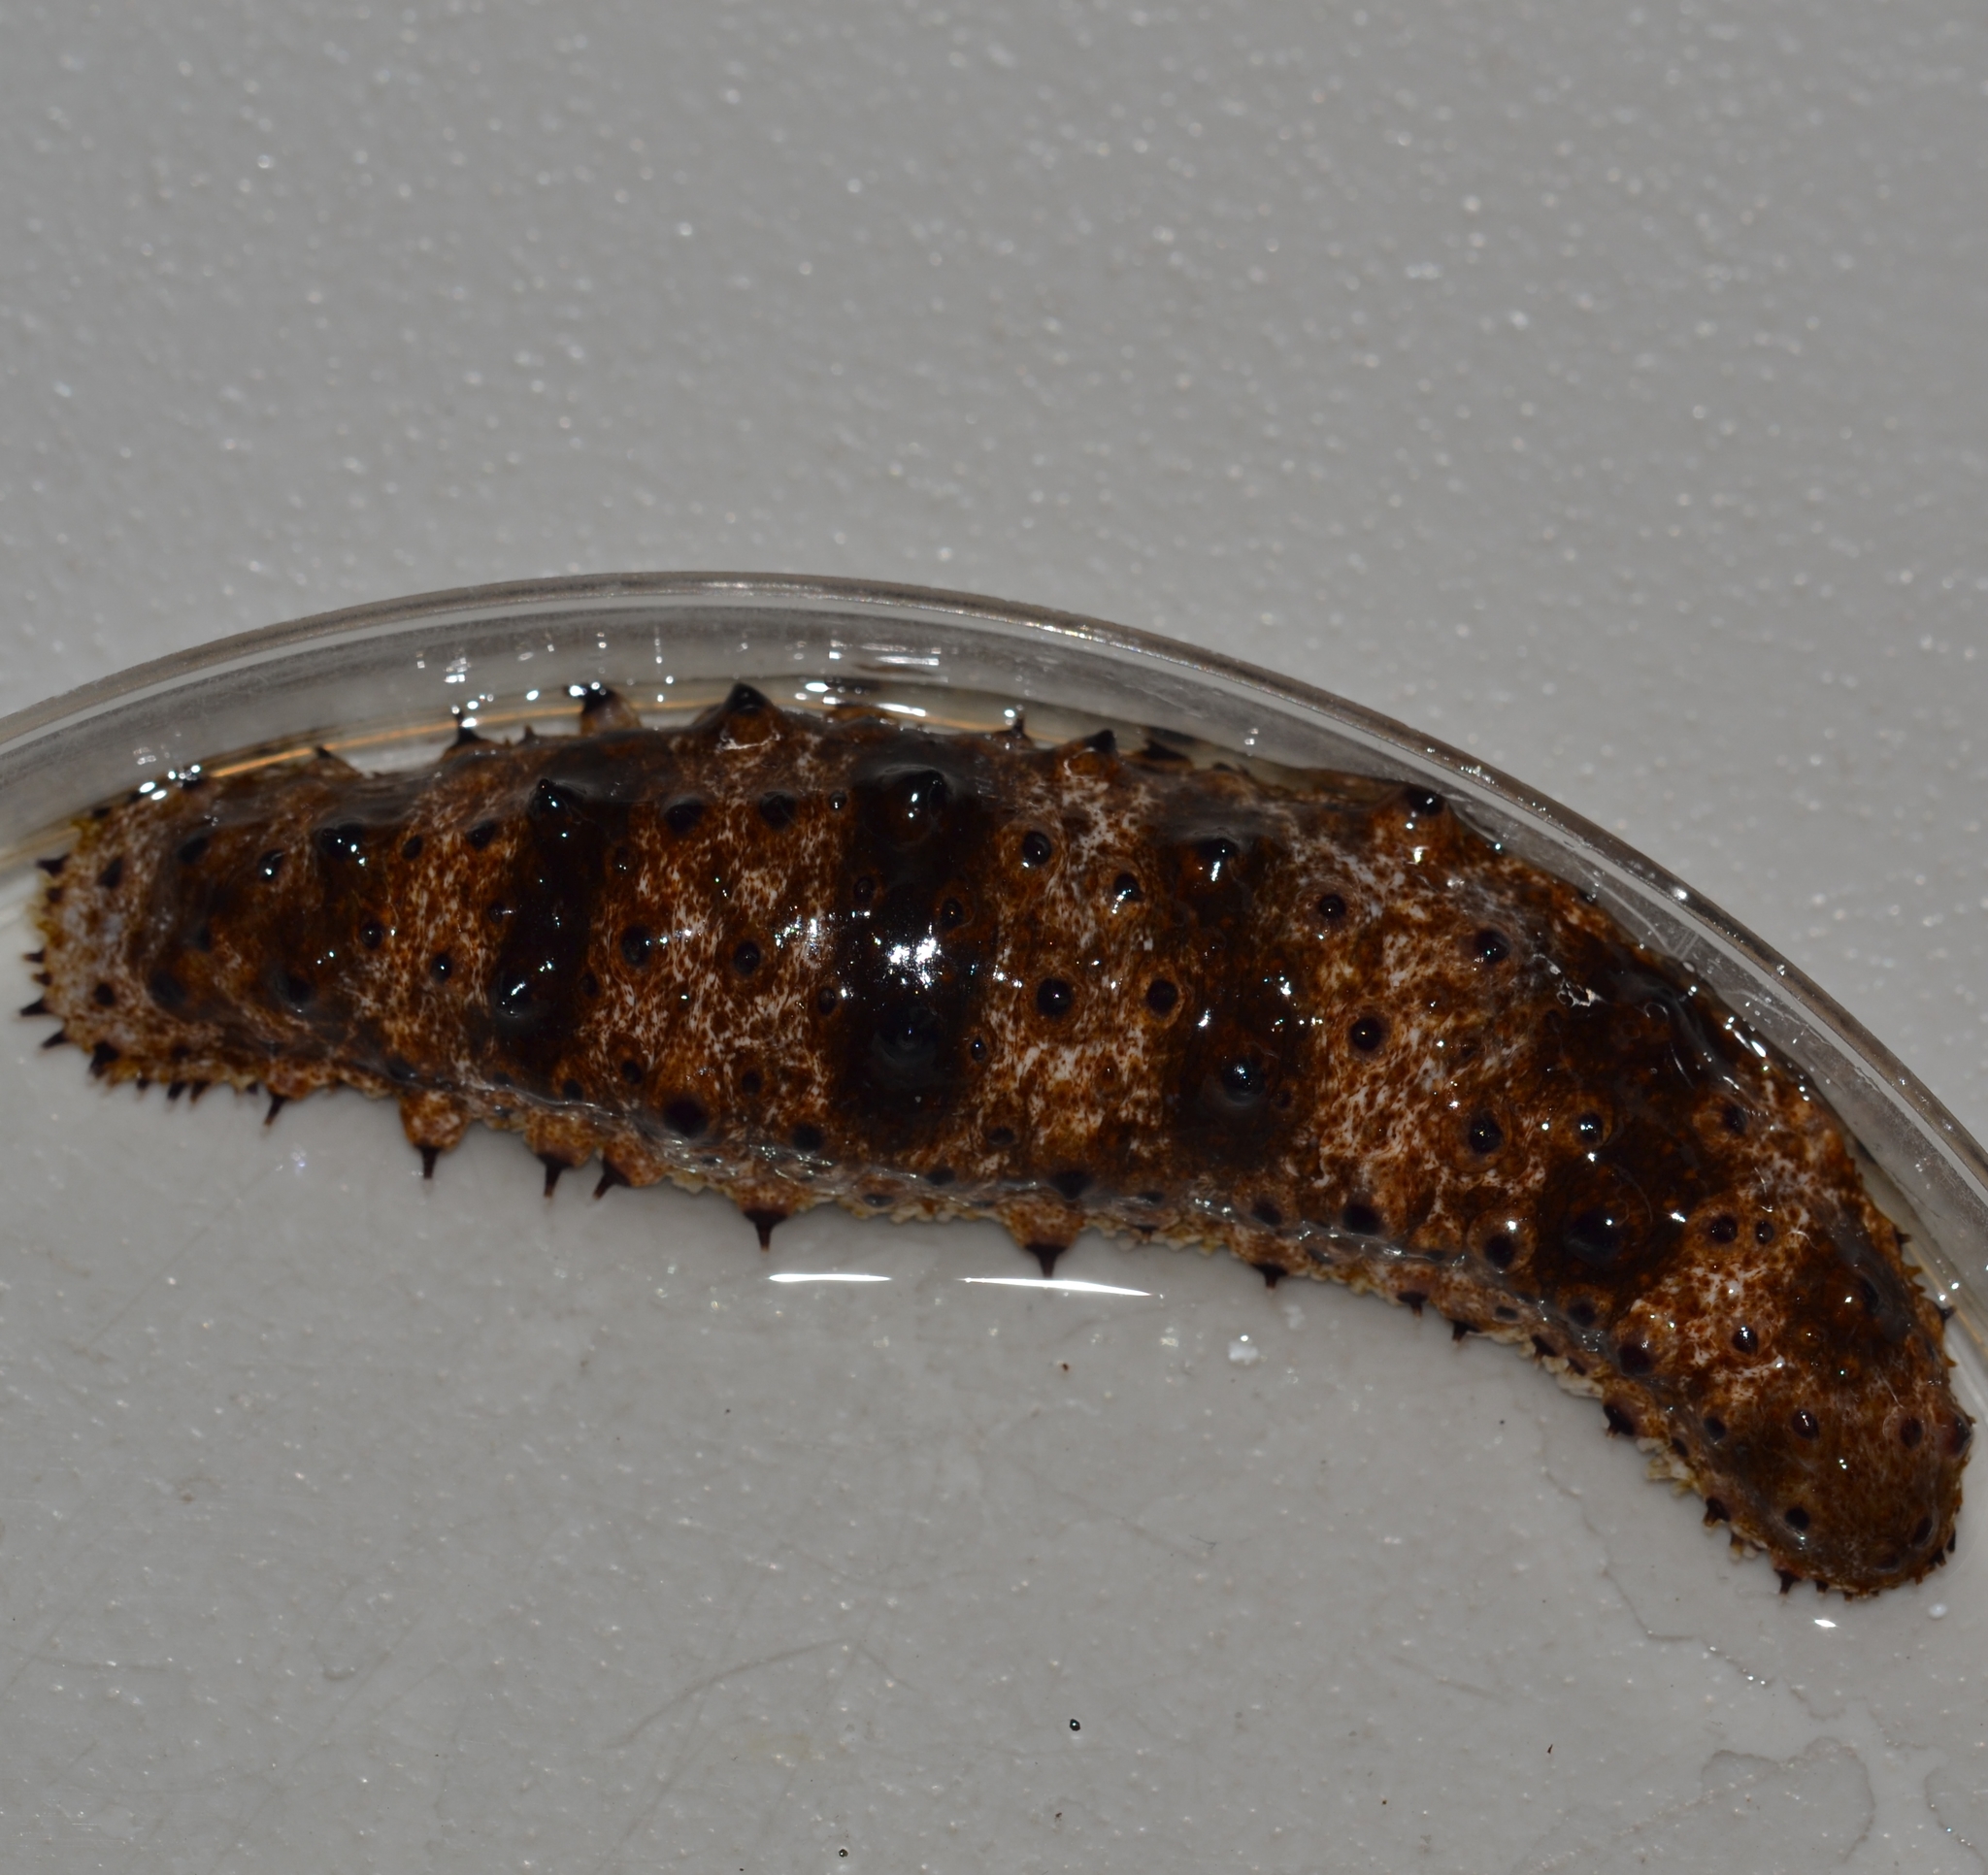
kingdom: Animalia
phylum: Echinodermata
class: Holothuroidea
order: Holothuriida
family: Holothuriidae
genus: Holothuria
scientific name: Holothuria pervicax
